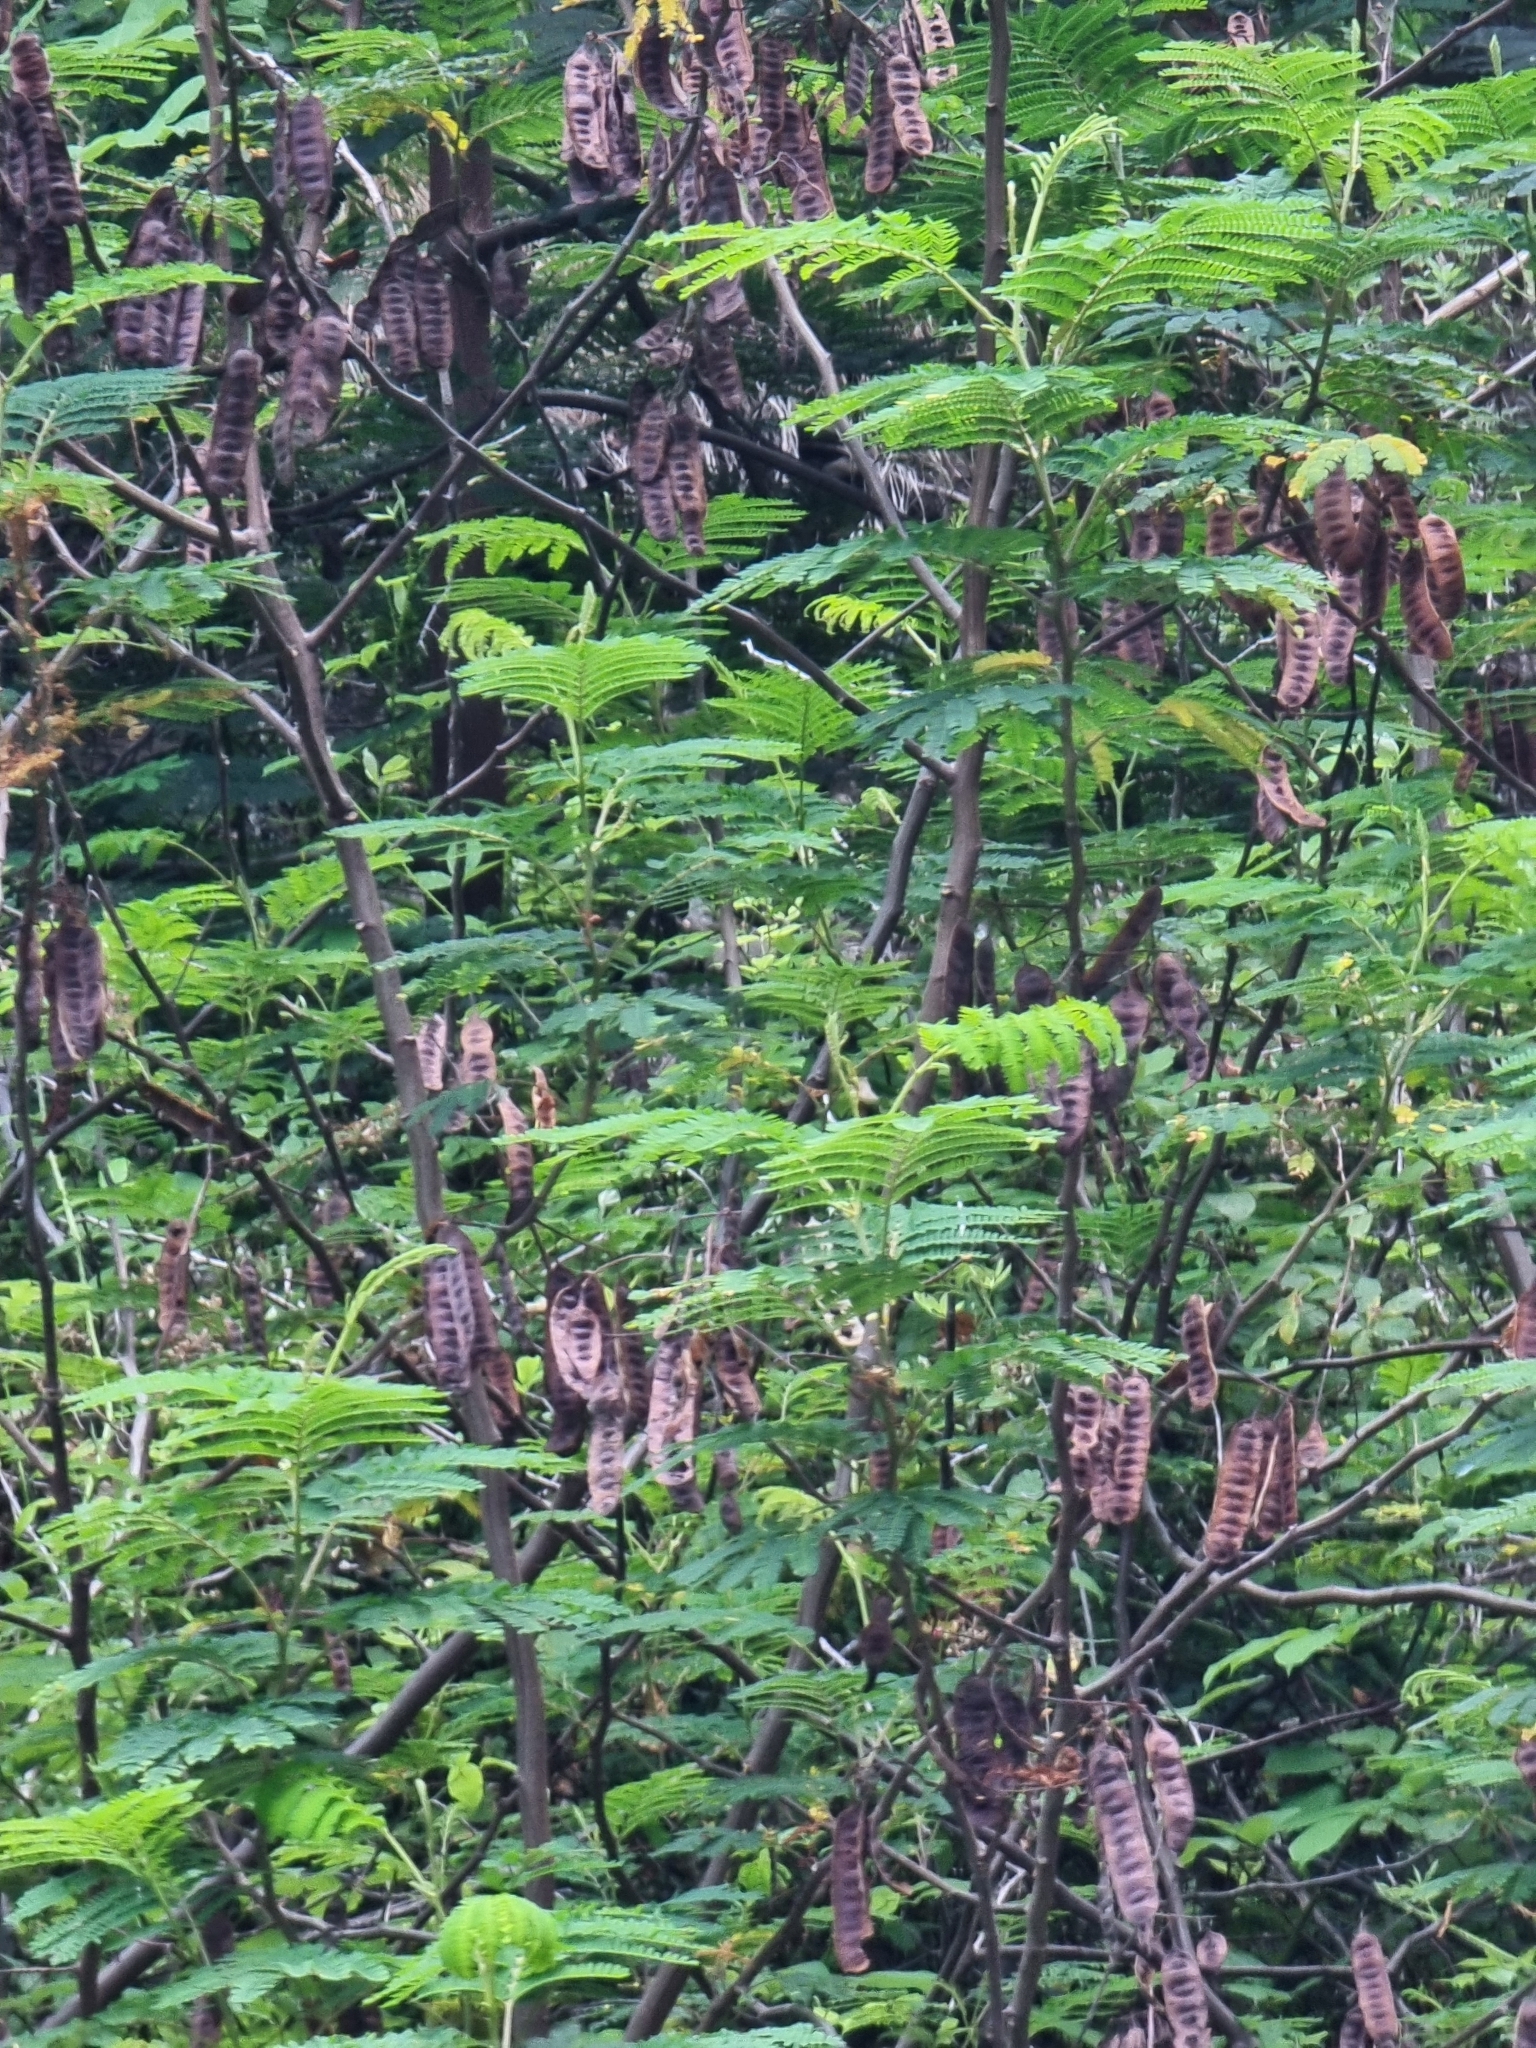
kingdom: Plantae
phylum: Tracheophyta
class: Magnoliopsida
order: Fabales
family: Fabaceae
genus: Paraserianthes
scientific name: Paraserianthes lophantha
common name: Plume albizia
